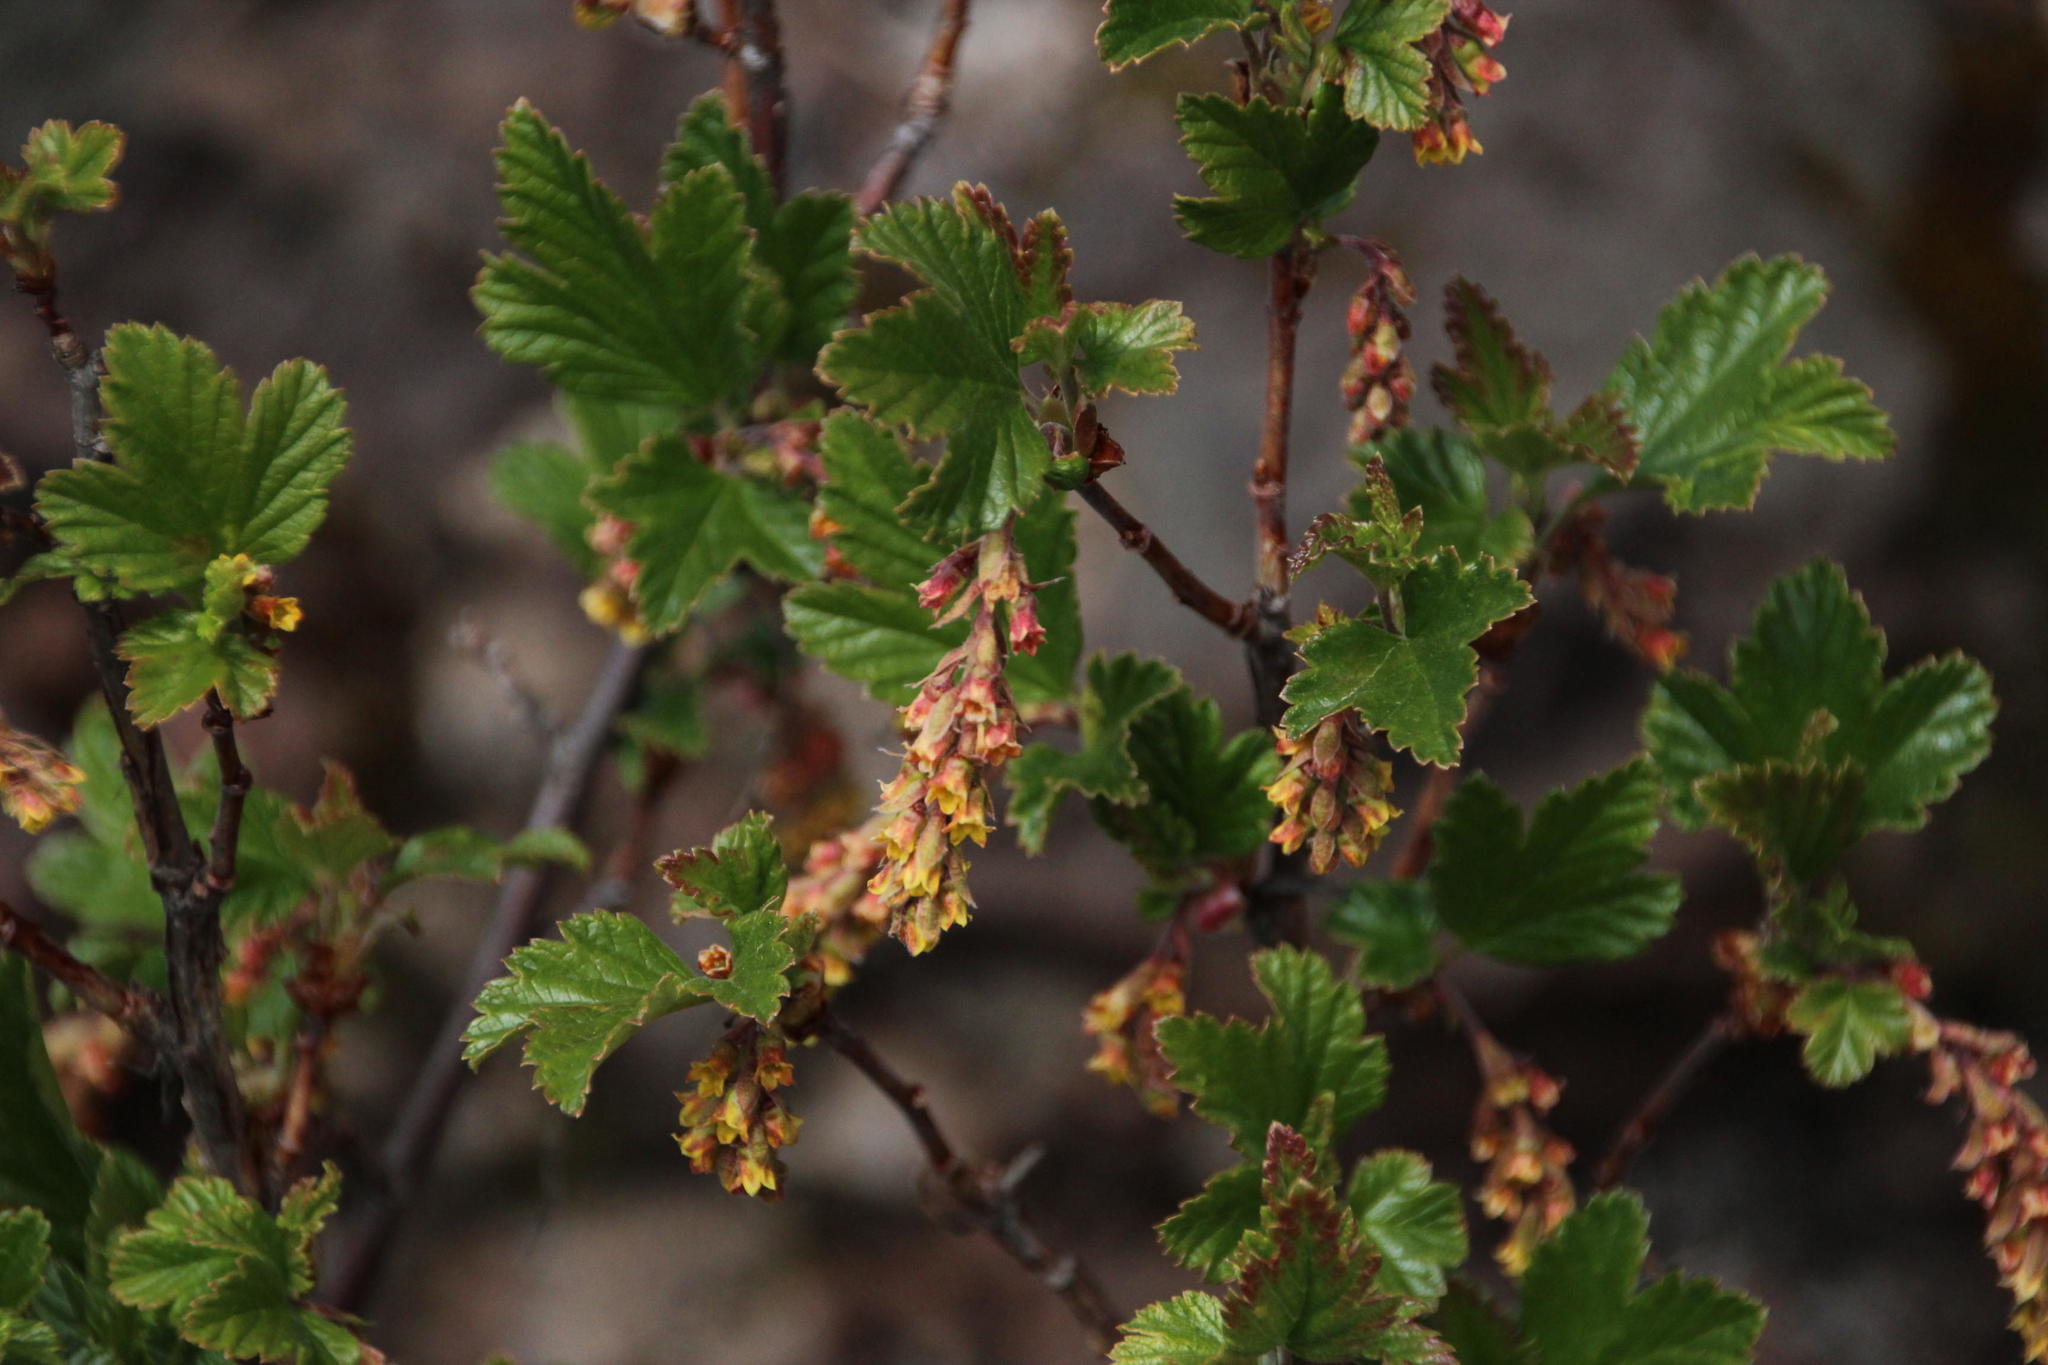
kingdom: Plantae
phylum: Tracheophyta
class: Magnoliopsida
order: Saxifragales
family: Grossulariaceae
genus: Ribes
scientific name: Ribes magellanicum
